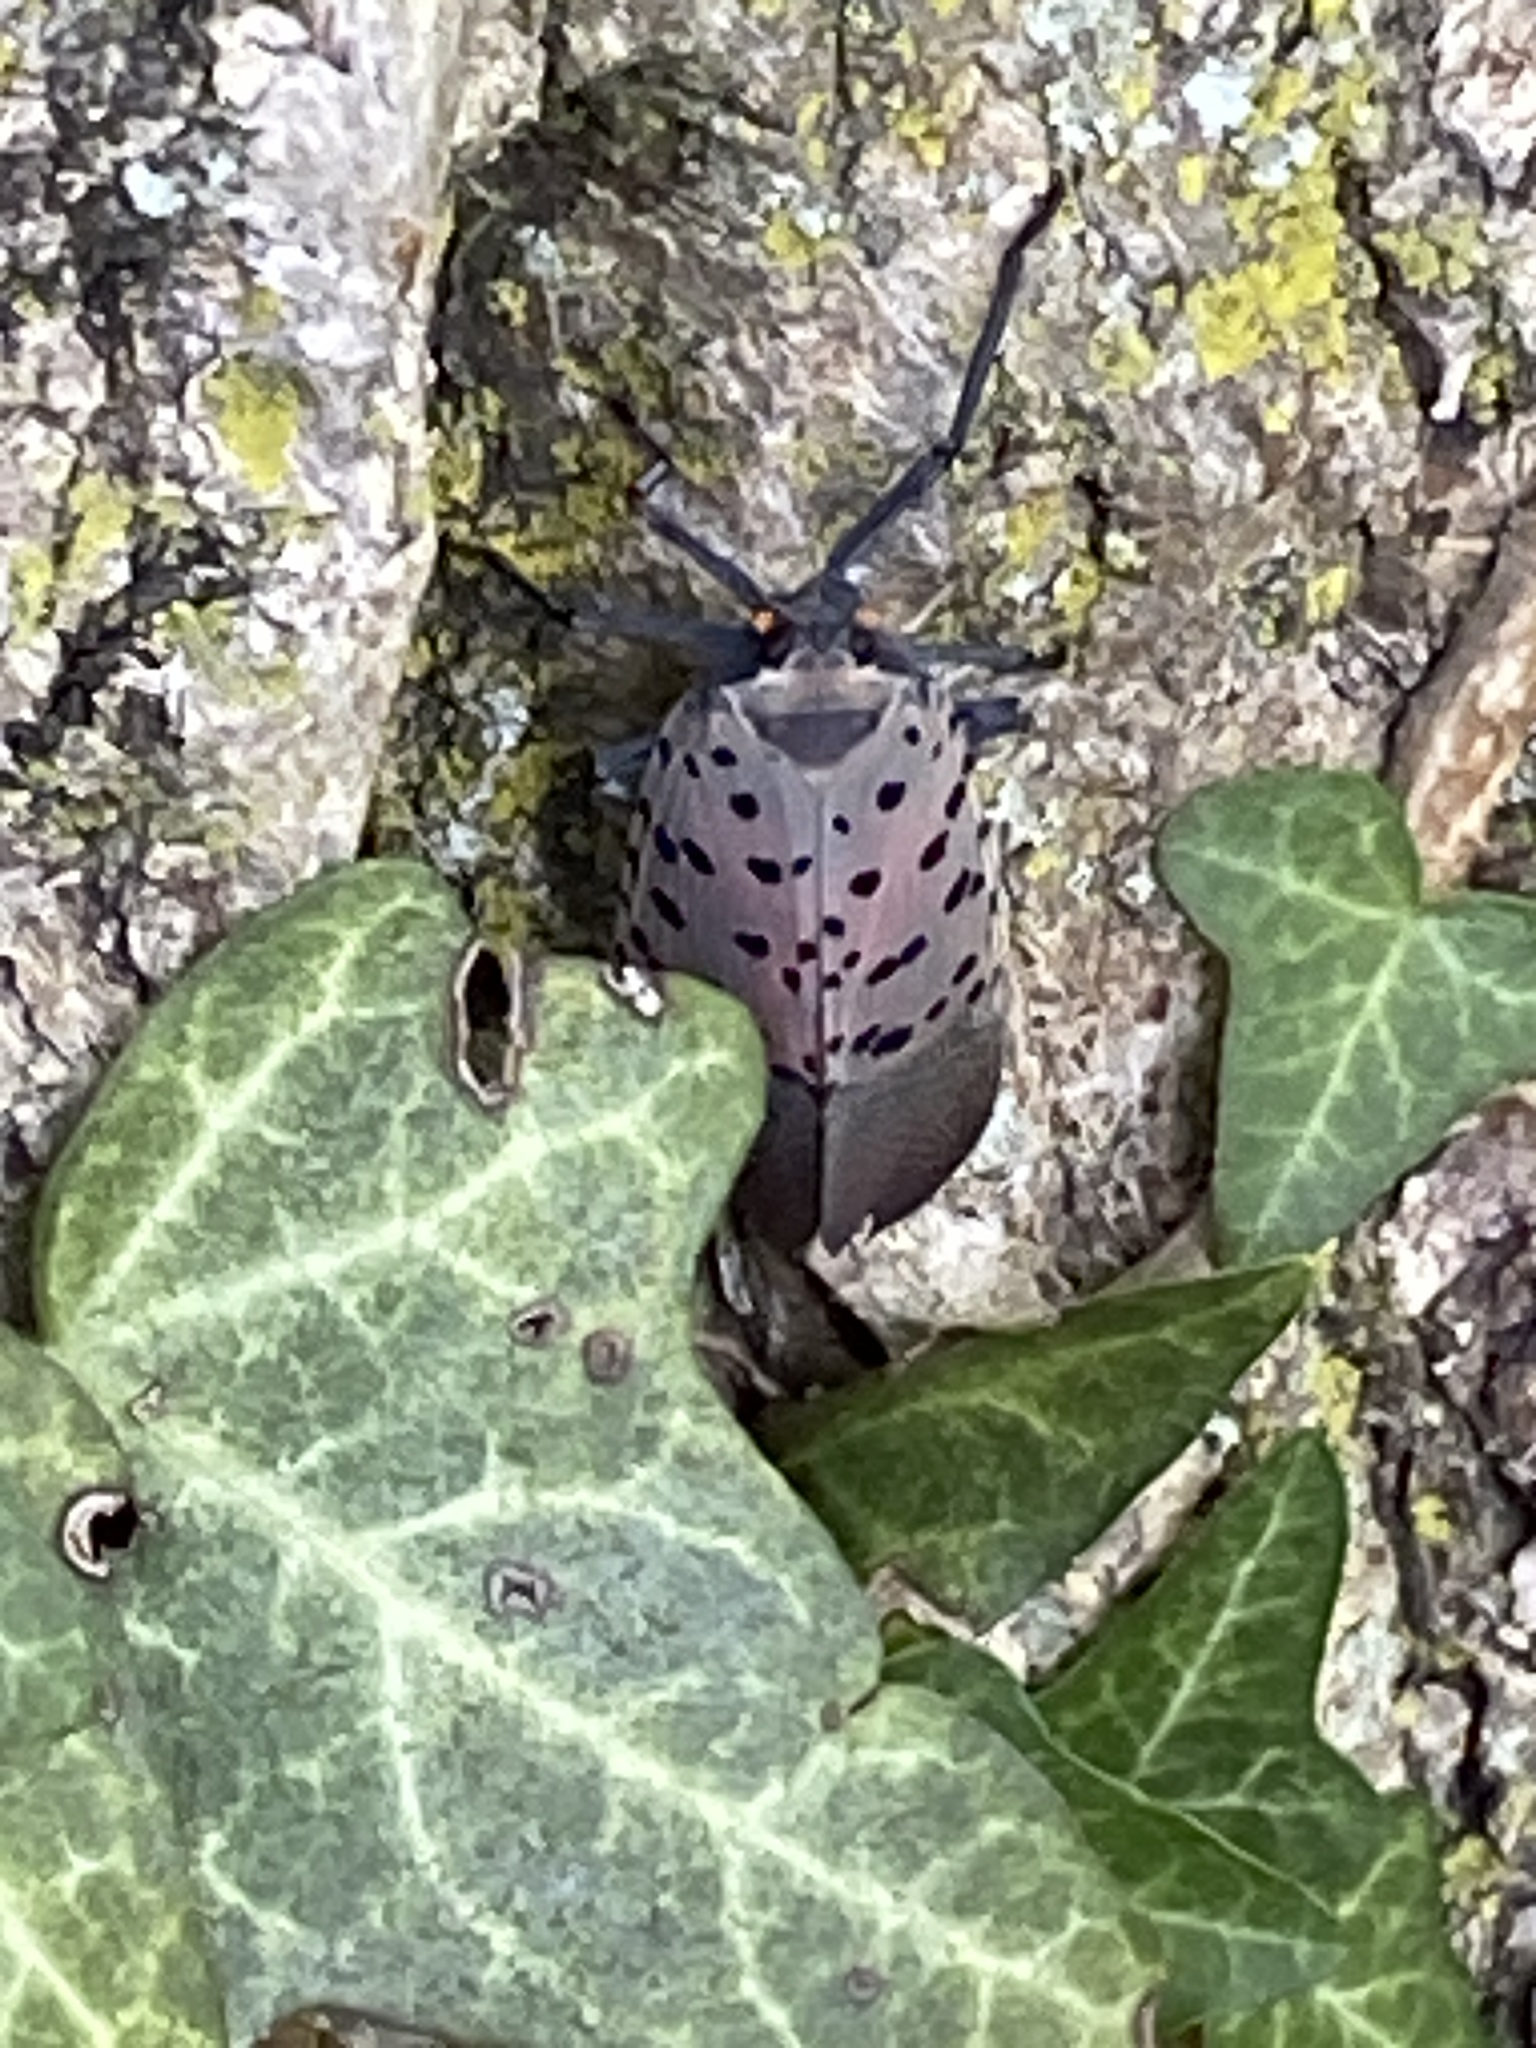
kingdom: Animalia
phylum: Arthropoda
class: Insecta
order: Hemiptera
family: Fulgoridae
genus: Lycorma
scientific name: Lycorma delicatula
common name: Spotted lanternfly
